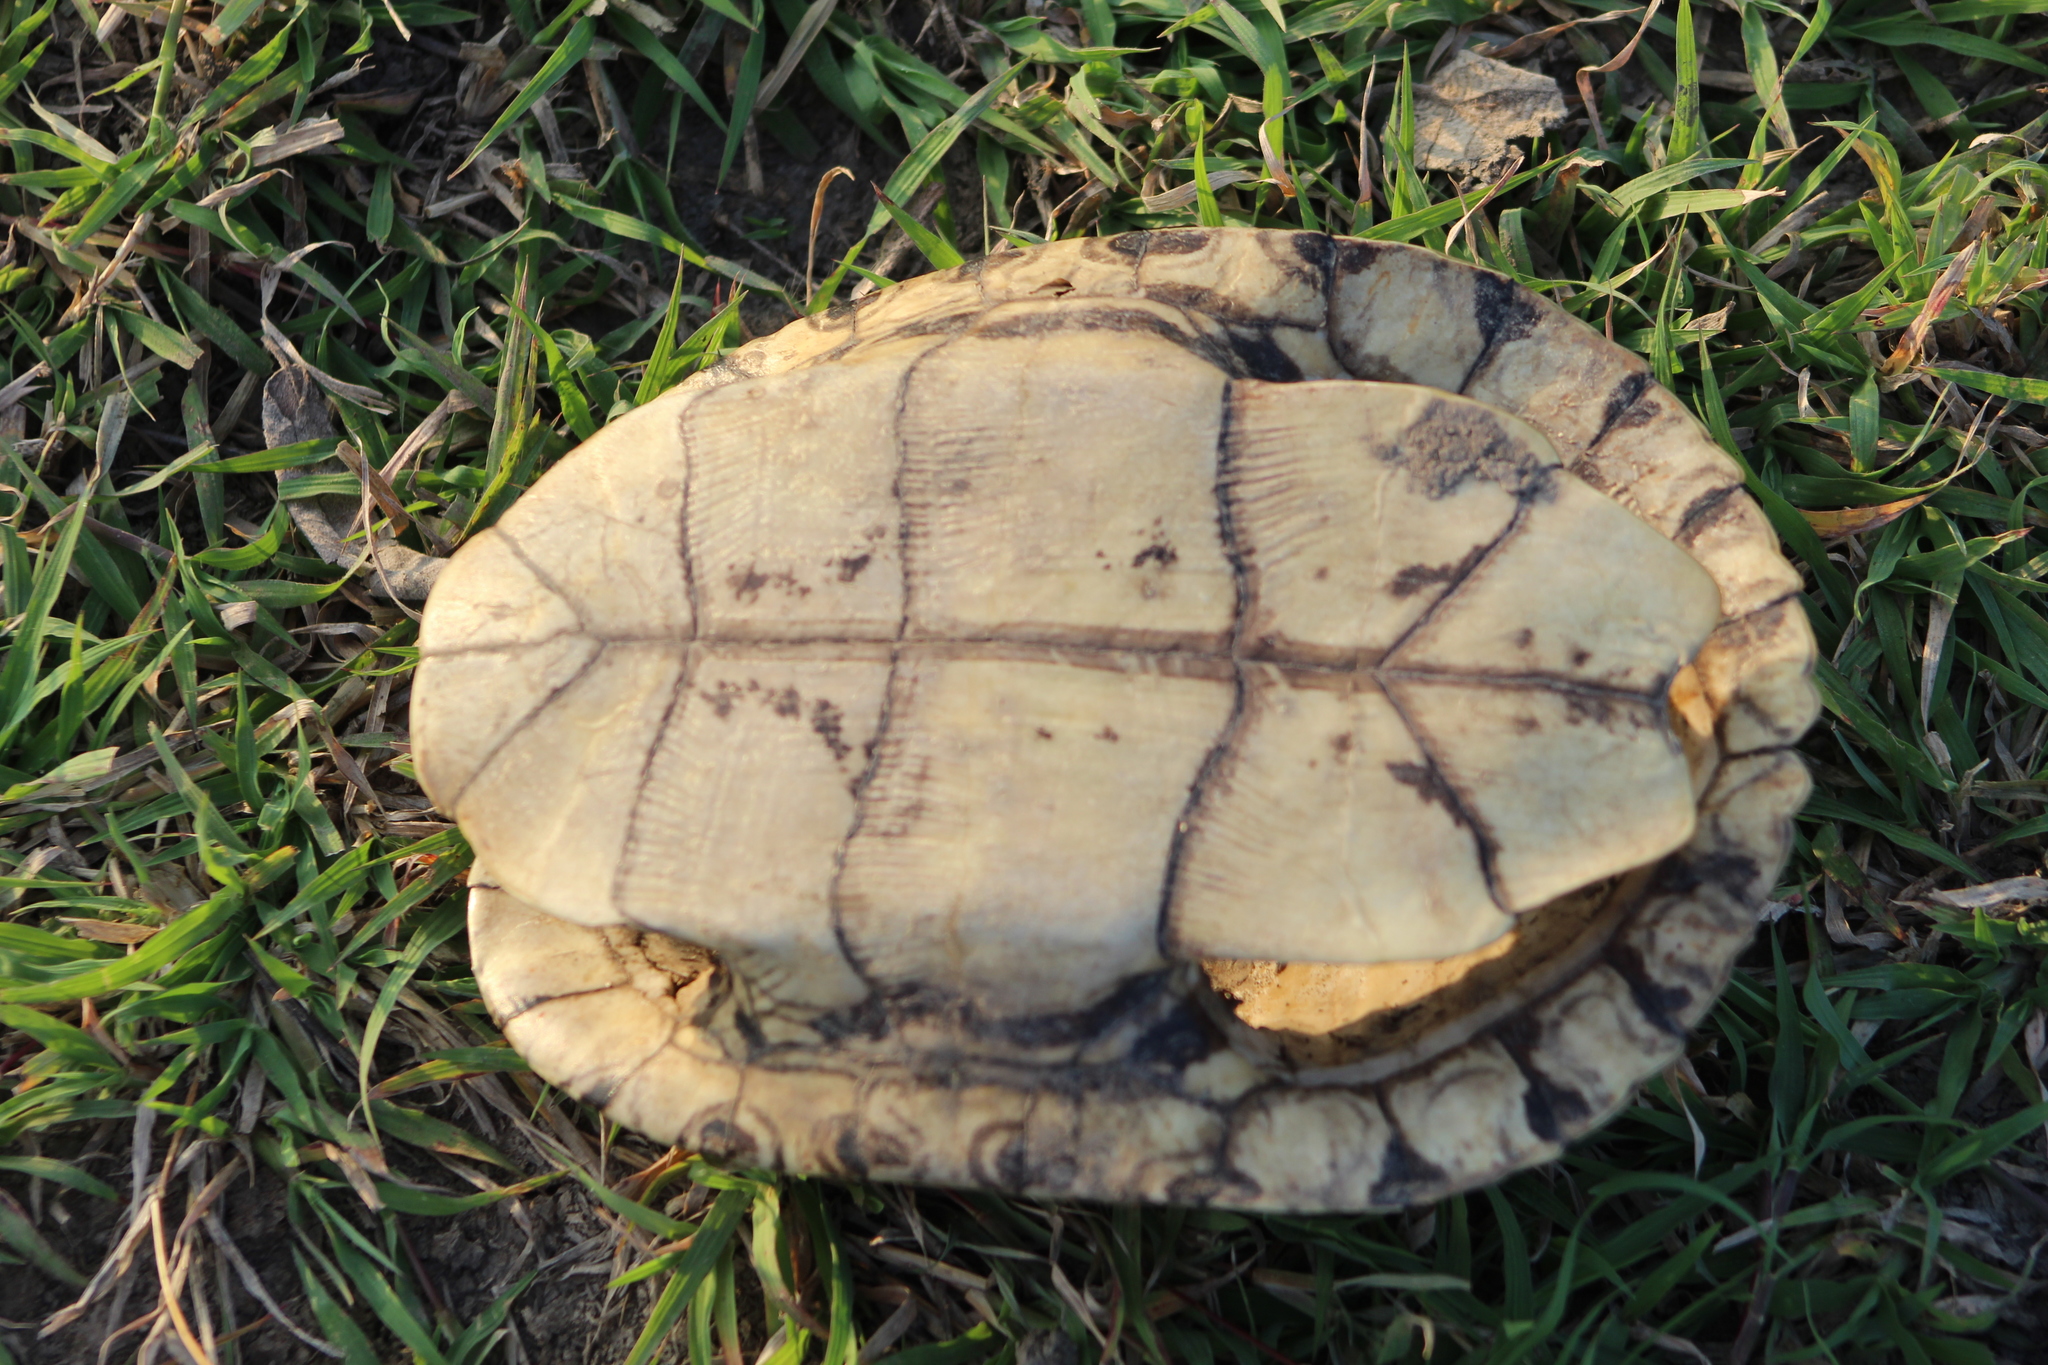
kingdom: Animalia
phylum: Chordata
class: Testudines
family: Emydidae
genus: Trachemys
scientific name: Trachemys venusta
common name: Mesoamerican slider
